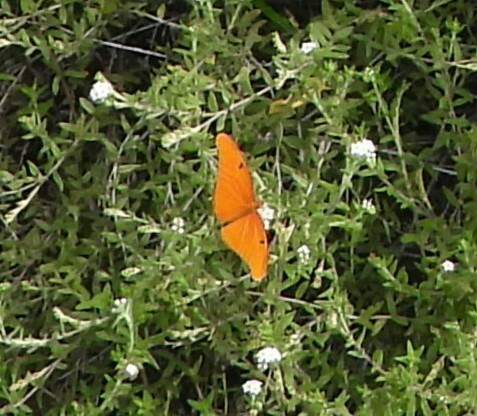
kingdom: Animalia
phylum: Arthropoda
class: Insecta
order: Lepidoptera
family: Nymphalidae
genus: Dryas
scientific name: Dryas iulia
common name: Flambeau
